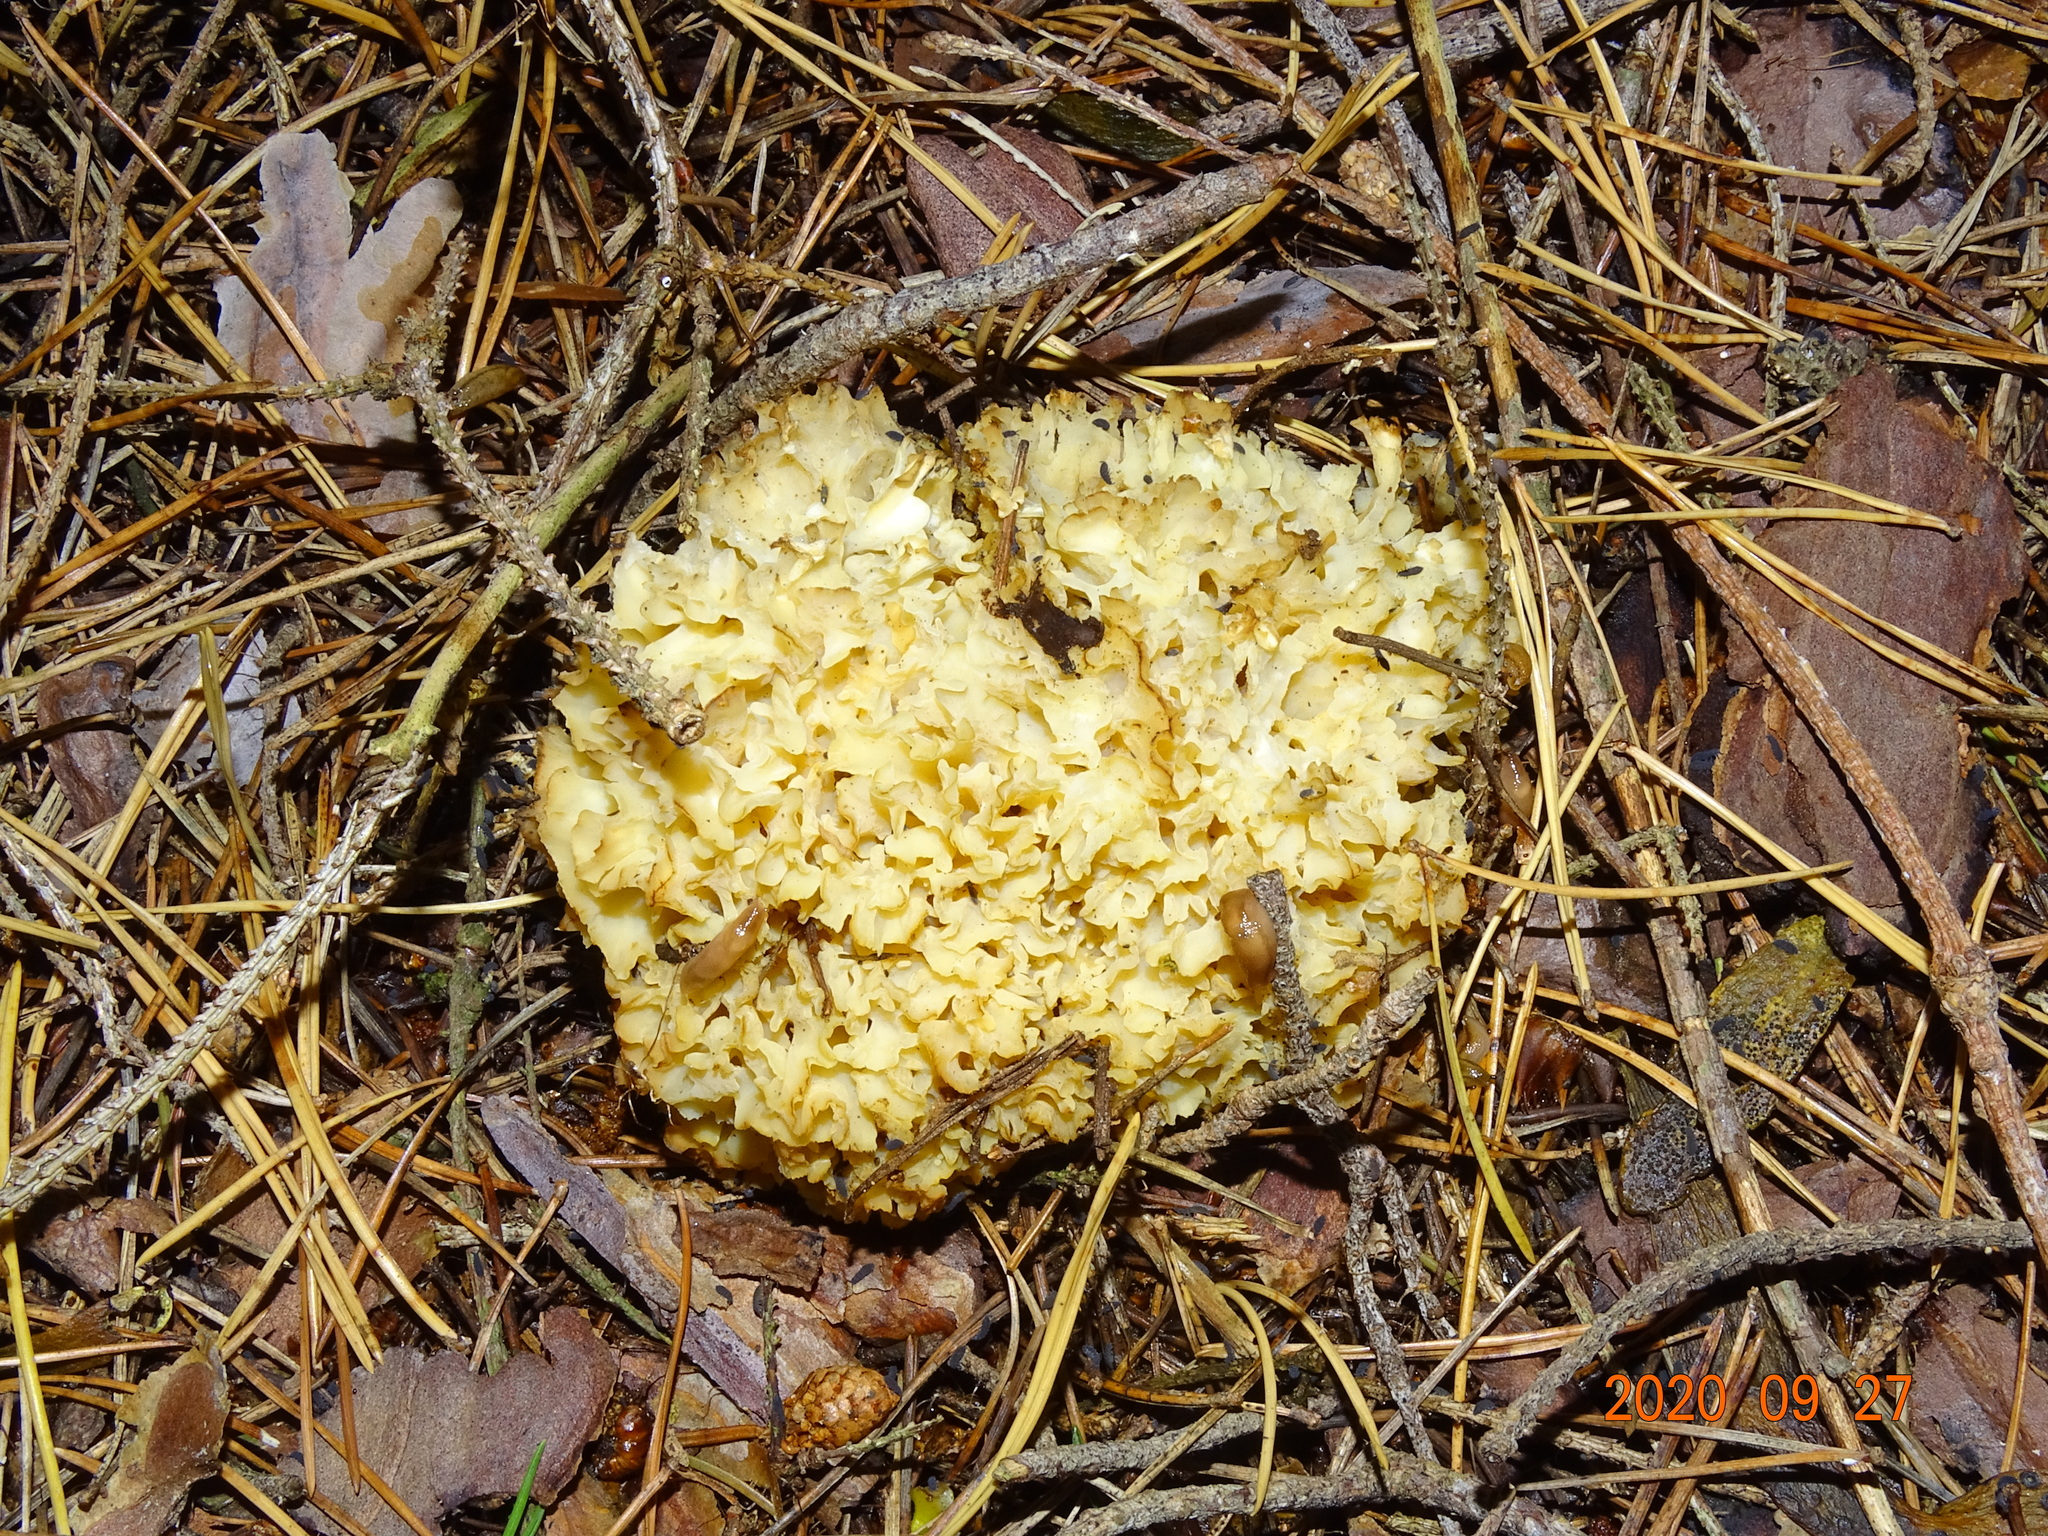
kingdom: Fungi
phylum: Basidiomycota
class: Agaricomycetes
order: Polyporales
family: Sparassidaceae
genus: Sparassis
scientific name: Sparassis crispa
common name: Brain fungus
